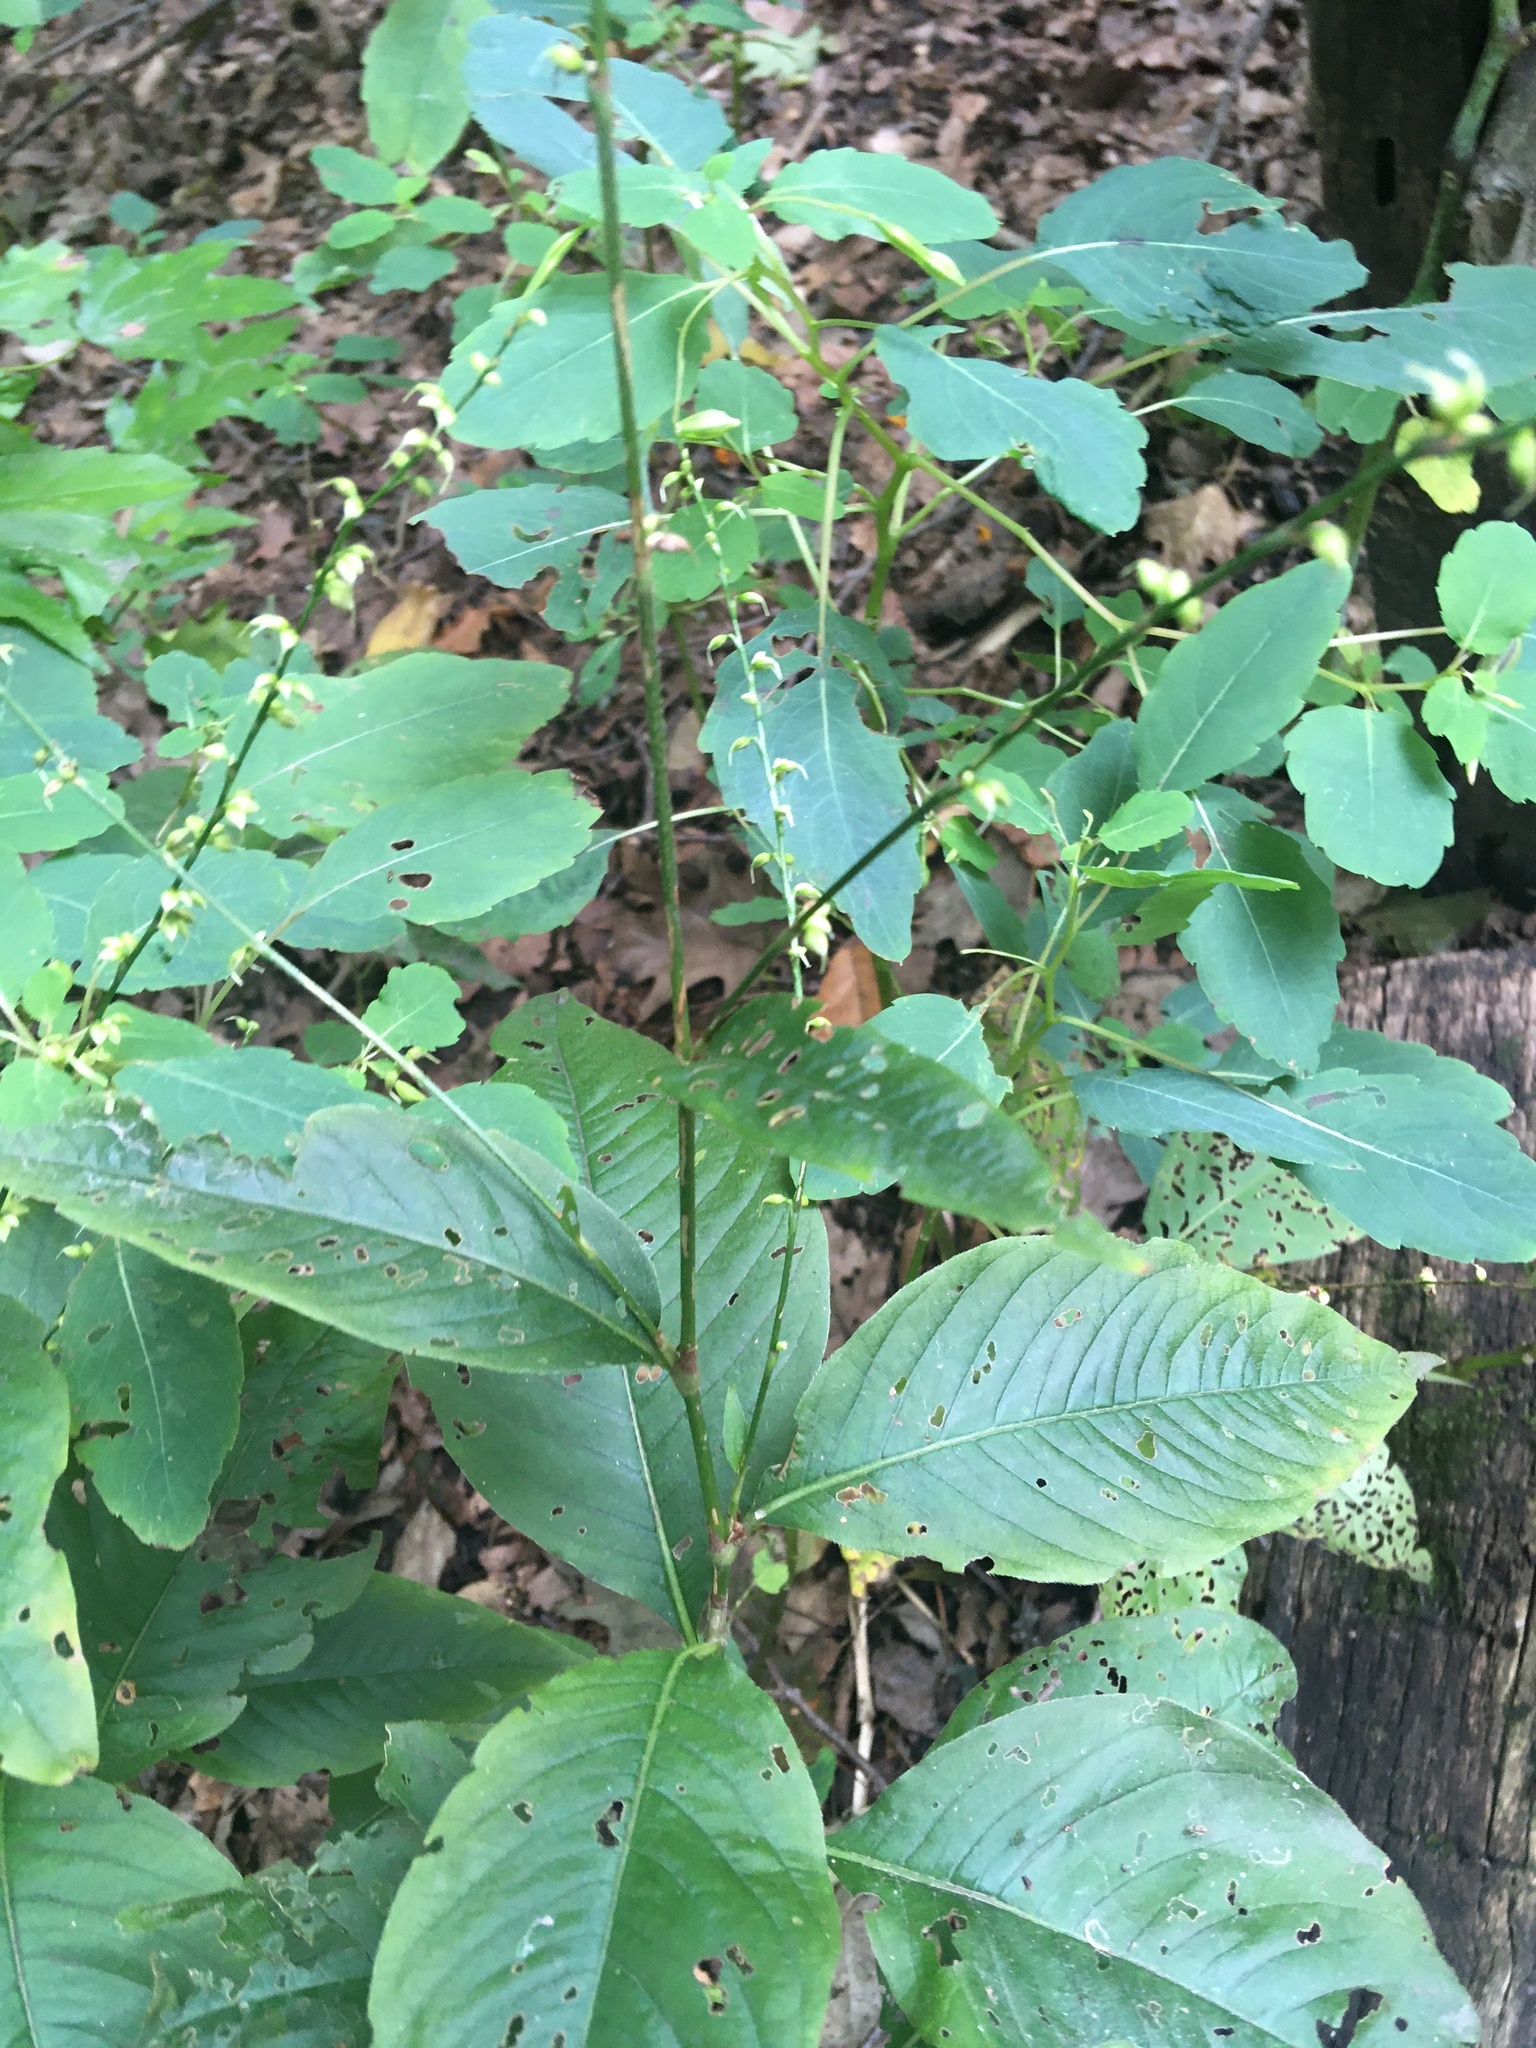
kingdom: Plantae
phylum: Tracheophyta
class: Magnoliopsida
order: Caryophyllales
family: Polygonaceae
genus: Persicaria
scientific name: Persicaria virginiana
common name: Jumpseed
